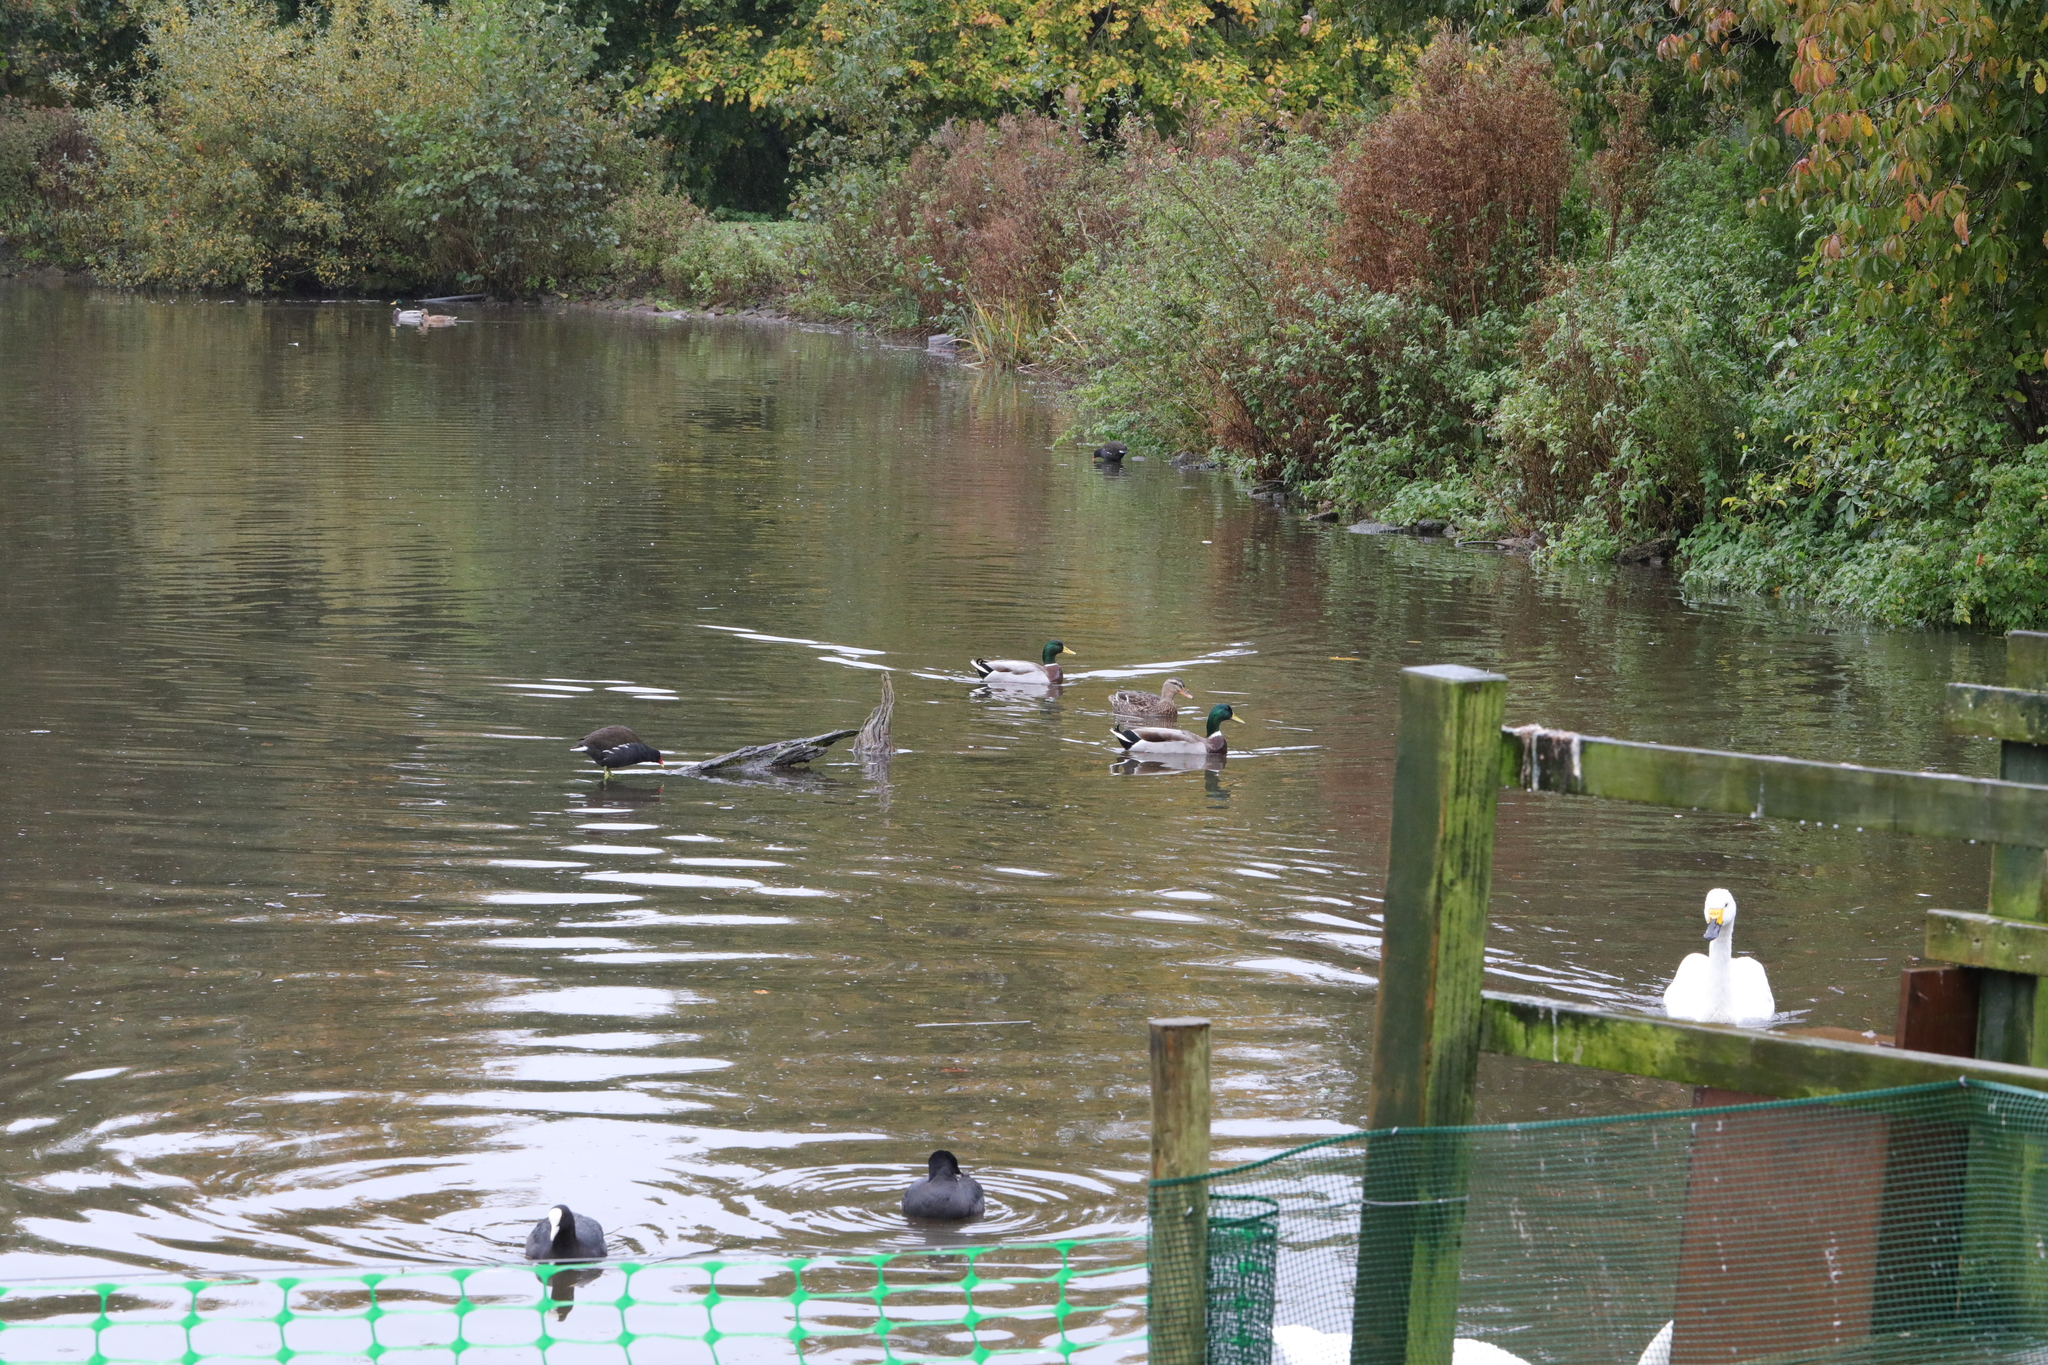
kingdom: Animalia
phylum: Chordata
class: Aves
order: Anseriformes
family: Anatidae
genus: Anas
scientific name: Anas platyrhynchos
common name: Mallard
